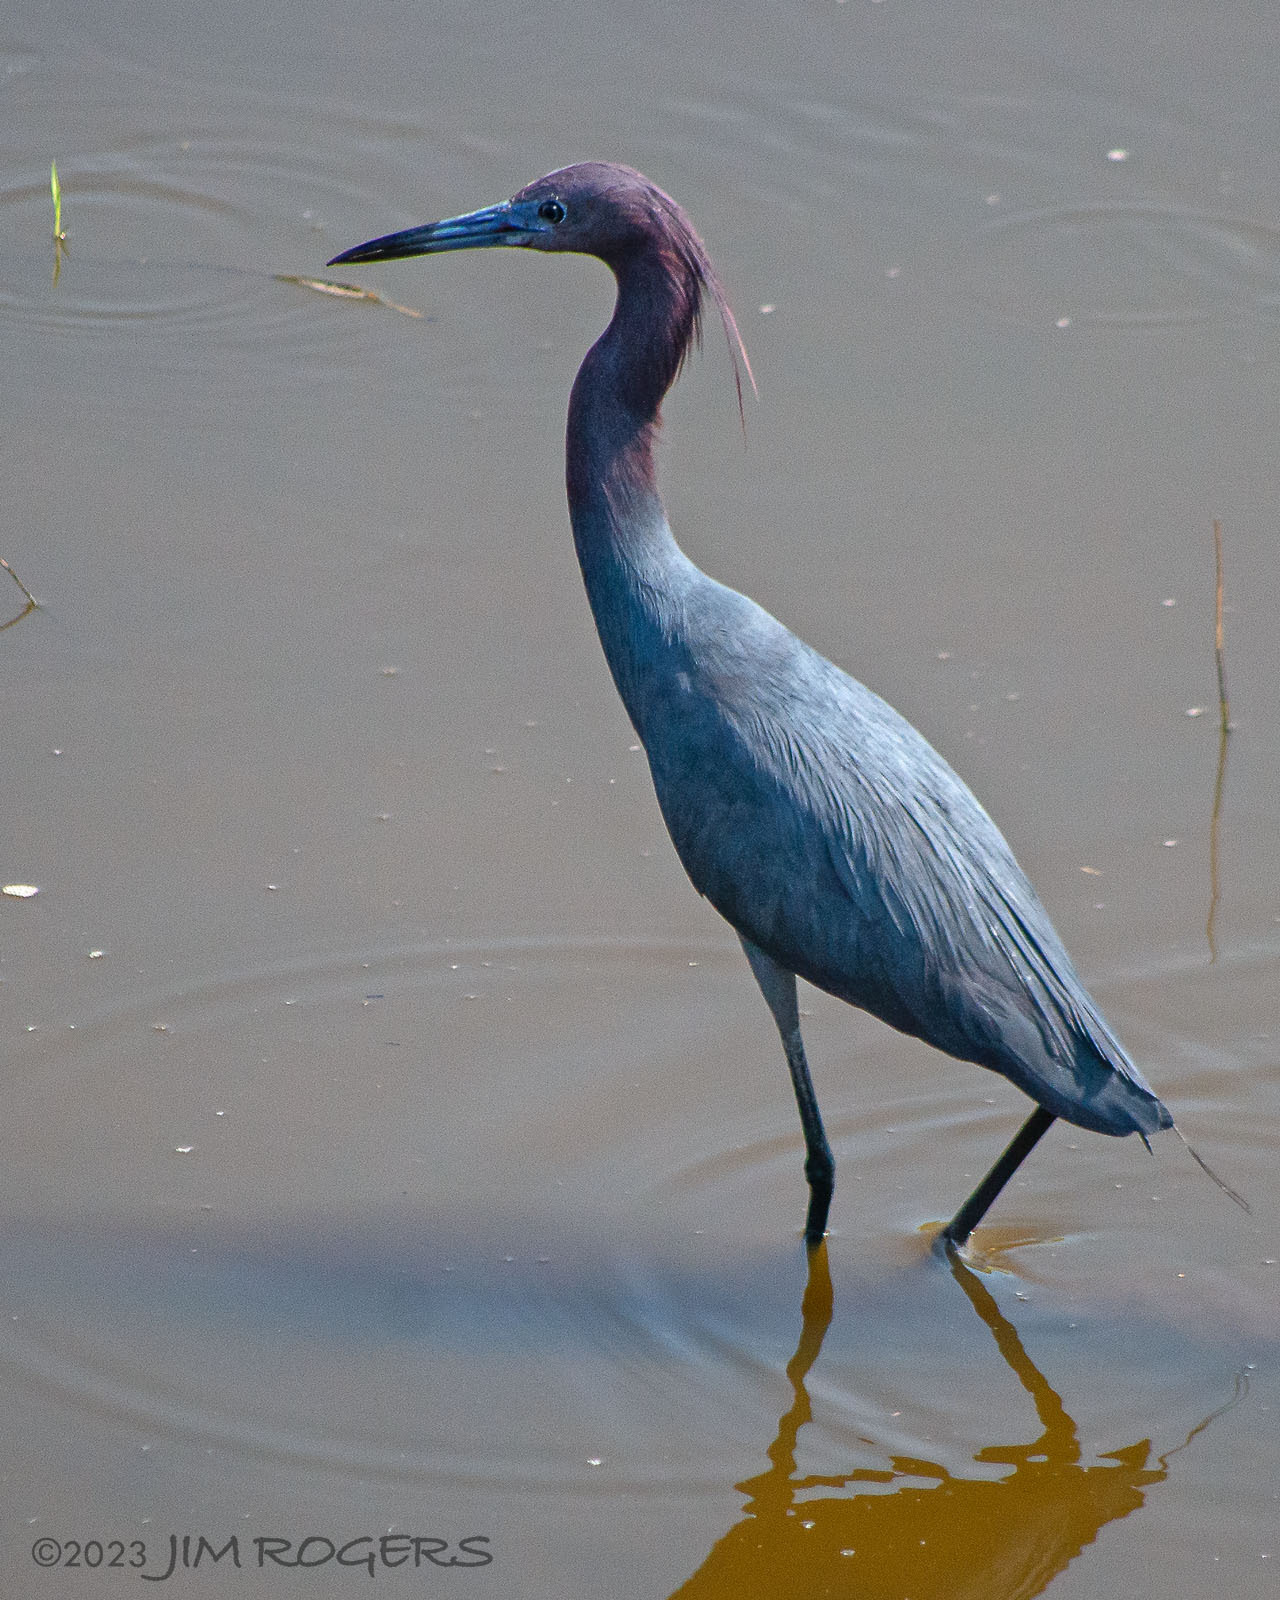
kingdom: Animalia
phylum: Chordata
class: Aves
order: Pelecaniformes
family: Ardeidae
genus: Egretta
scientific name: Egretta caerulea
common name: Little blue heron
